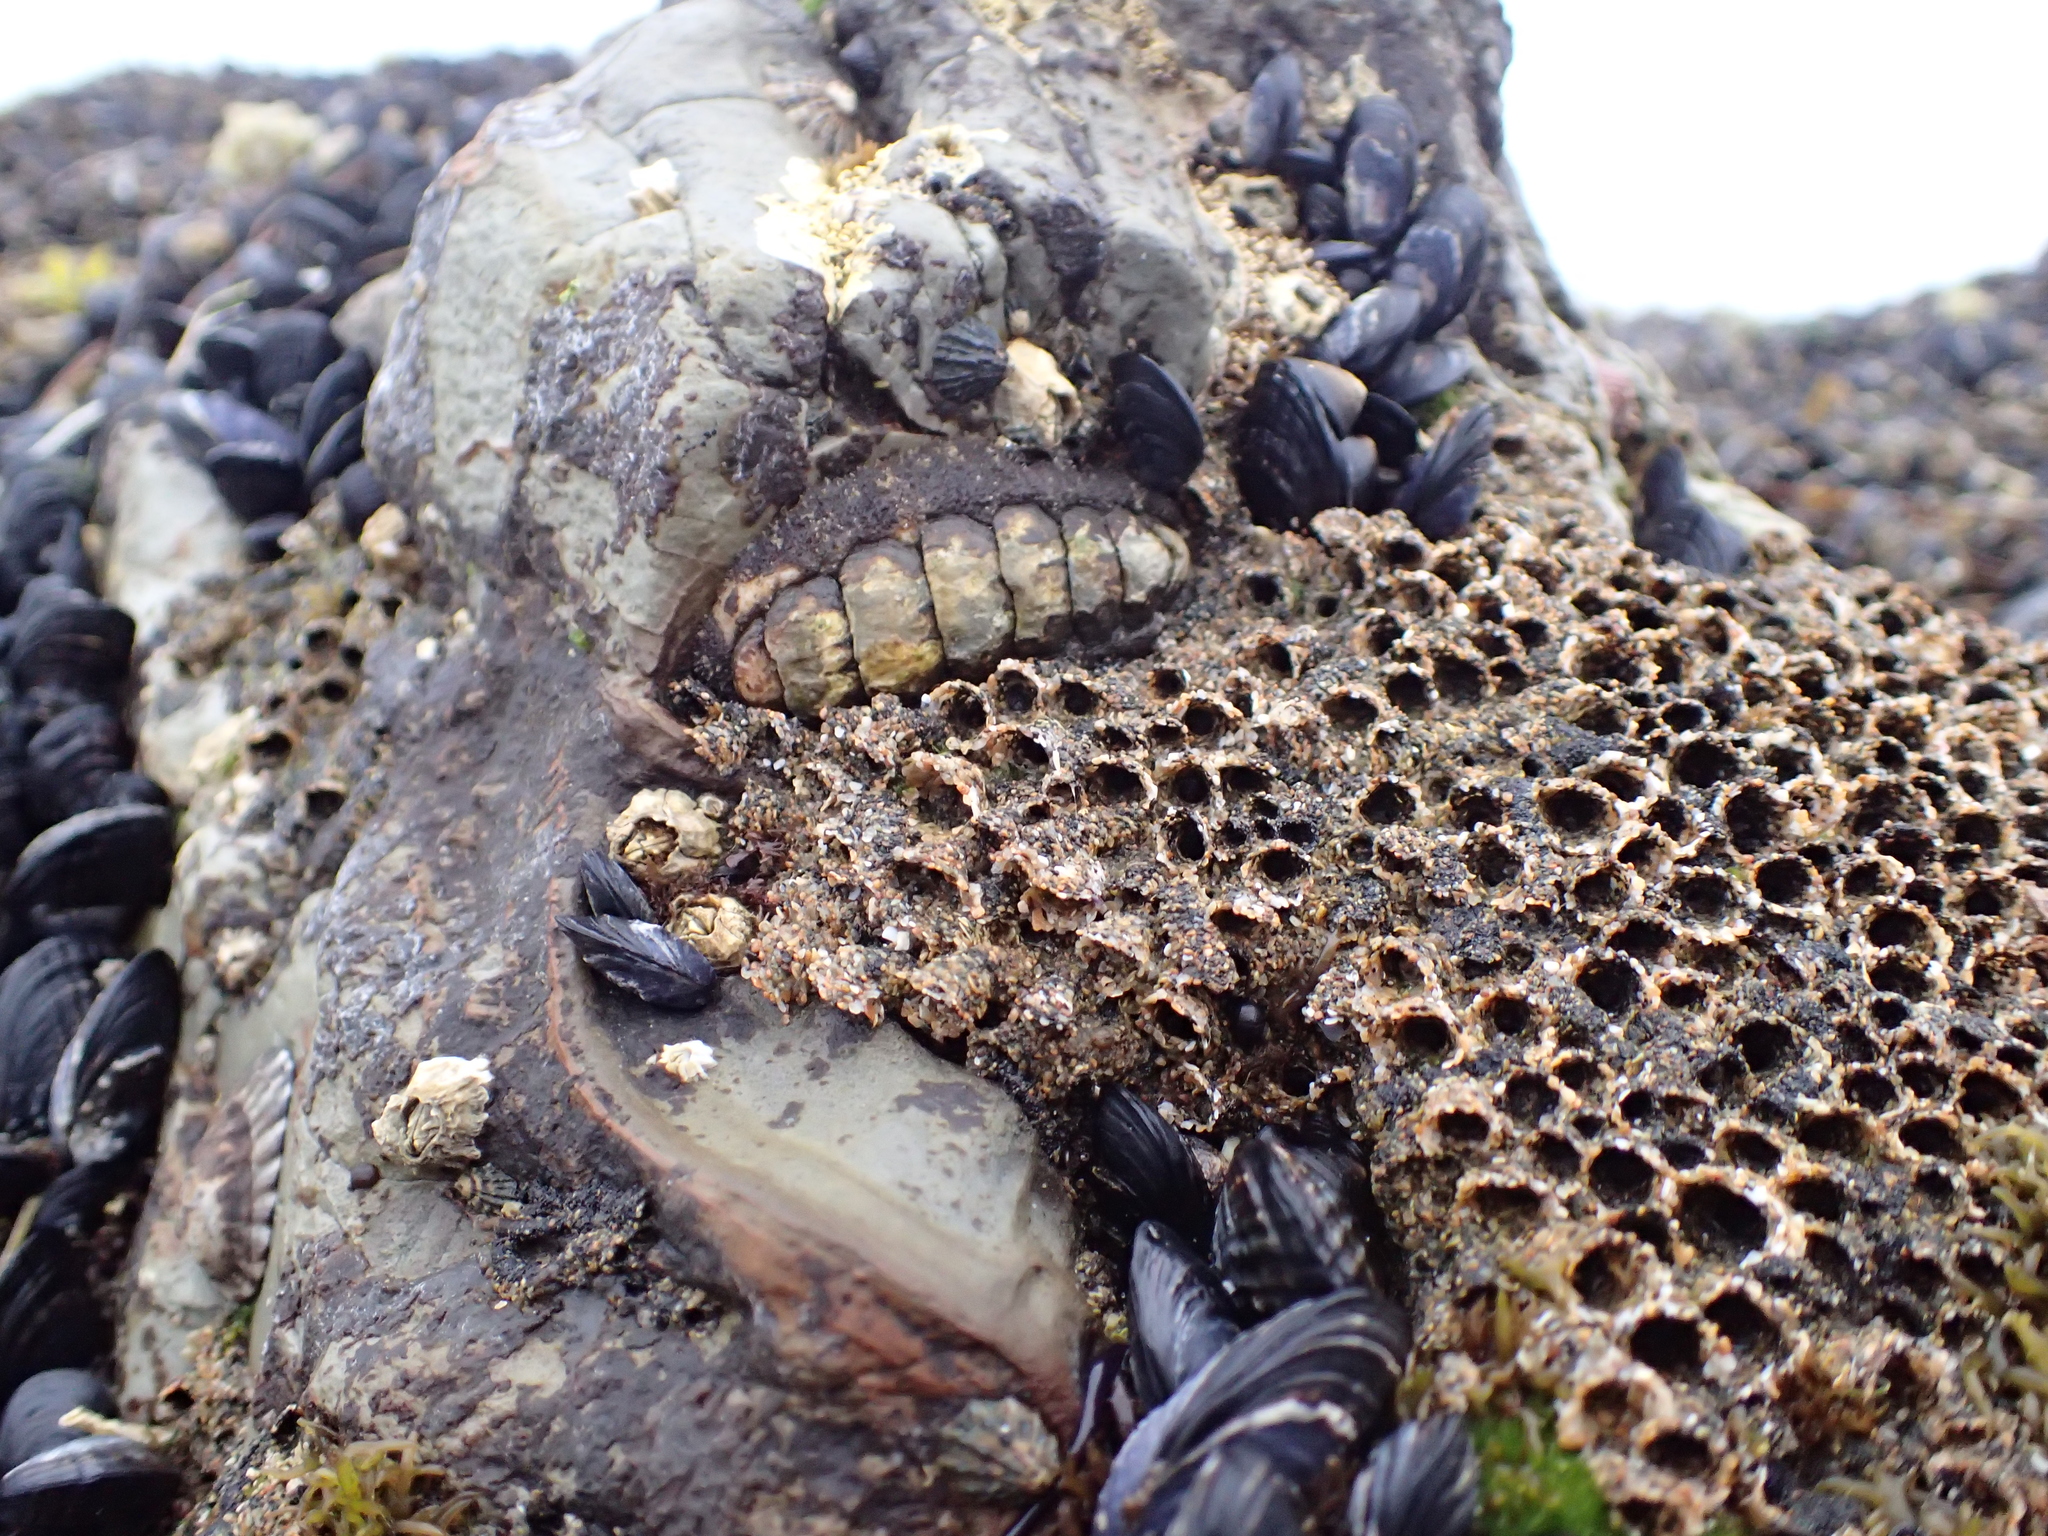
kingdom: Animalia
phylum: Mollusca
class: Polyplacophora
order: Chitonida
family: Tonicellidae
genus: Nuttallina
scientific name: Nuttallina californica
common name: California nuttall chiton
